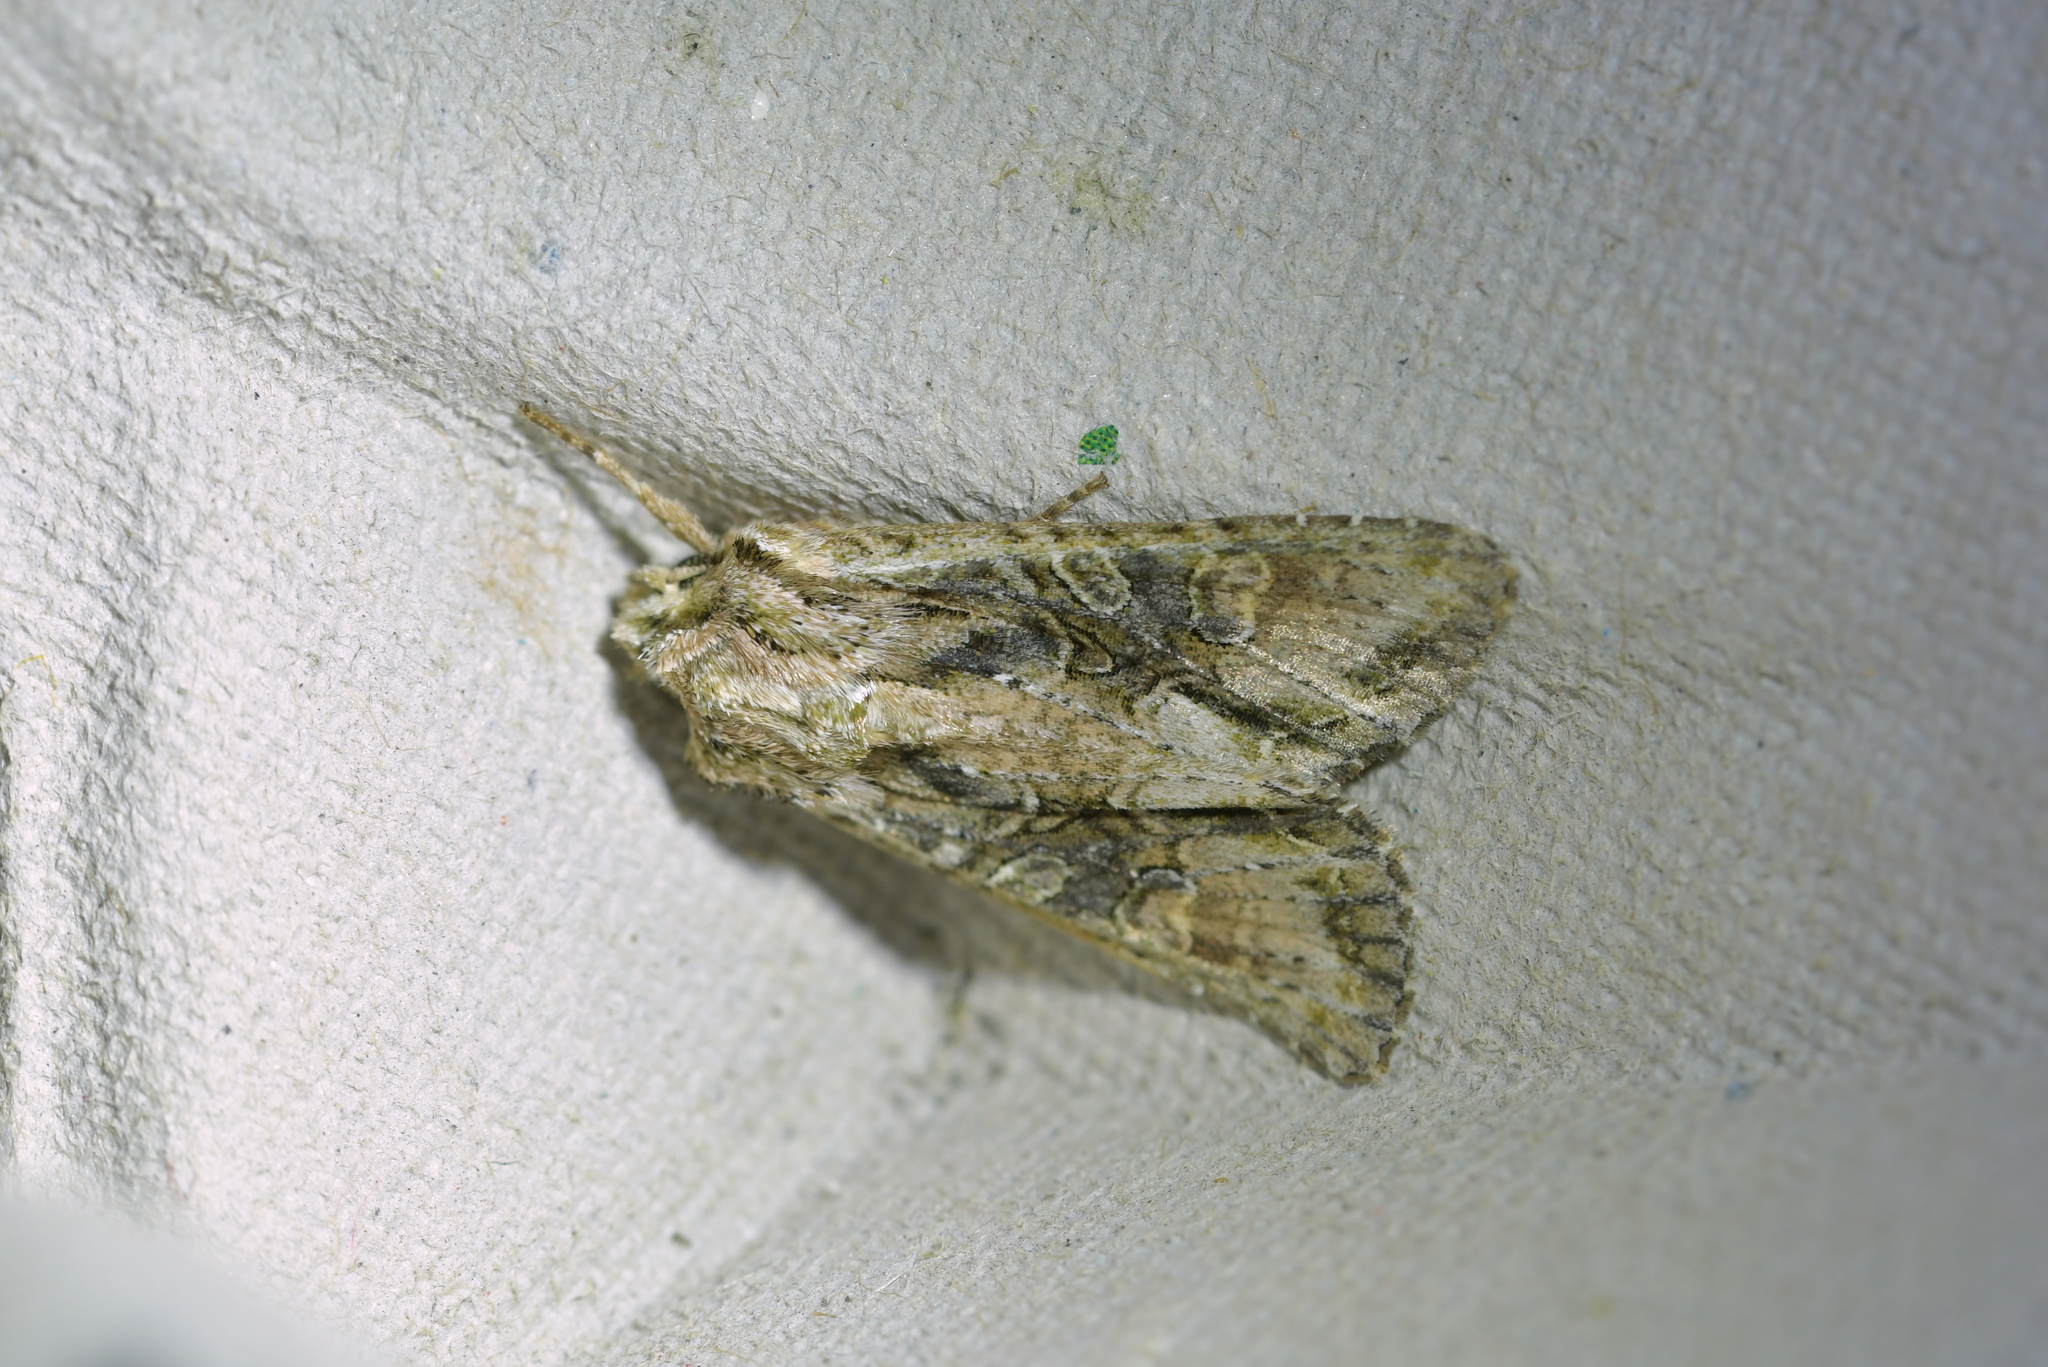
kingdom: Animalia
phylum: Arthropoda
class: Insecta
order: Lepidoptera
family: Noctuidae
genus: Ichneutica
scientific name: Ichneutica mutans
